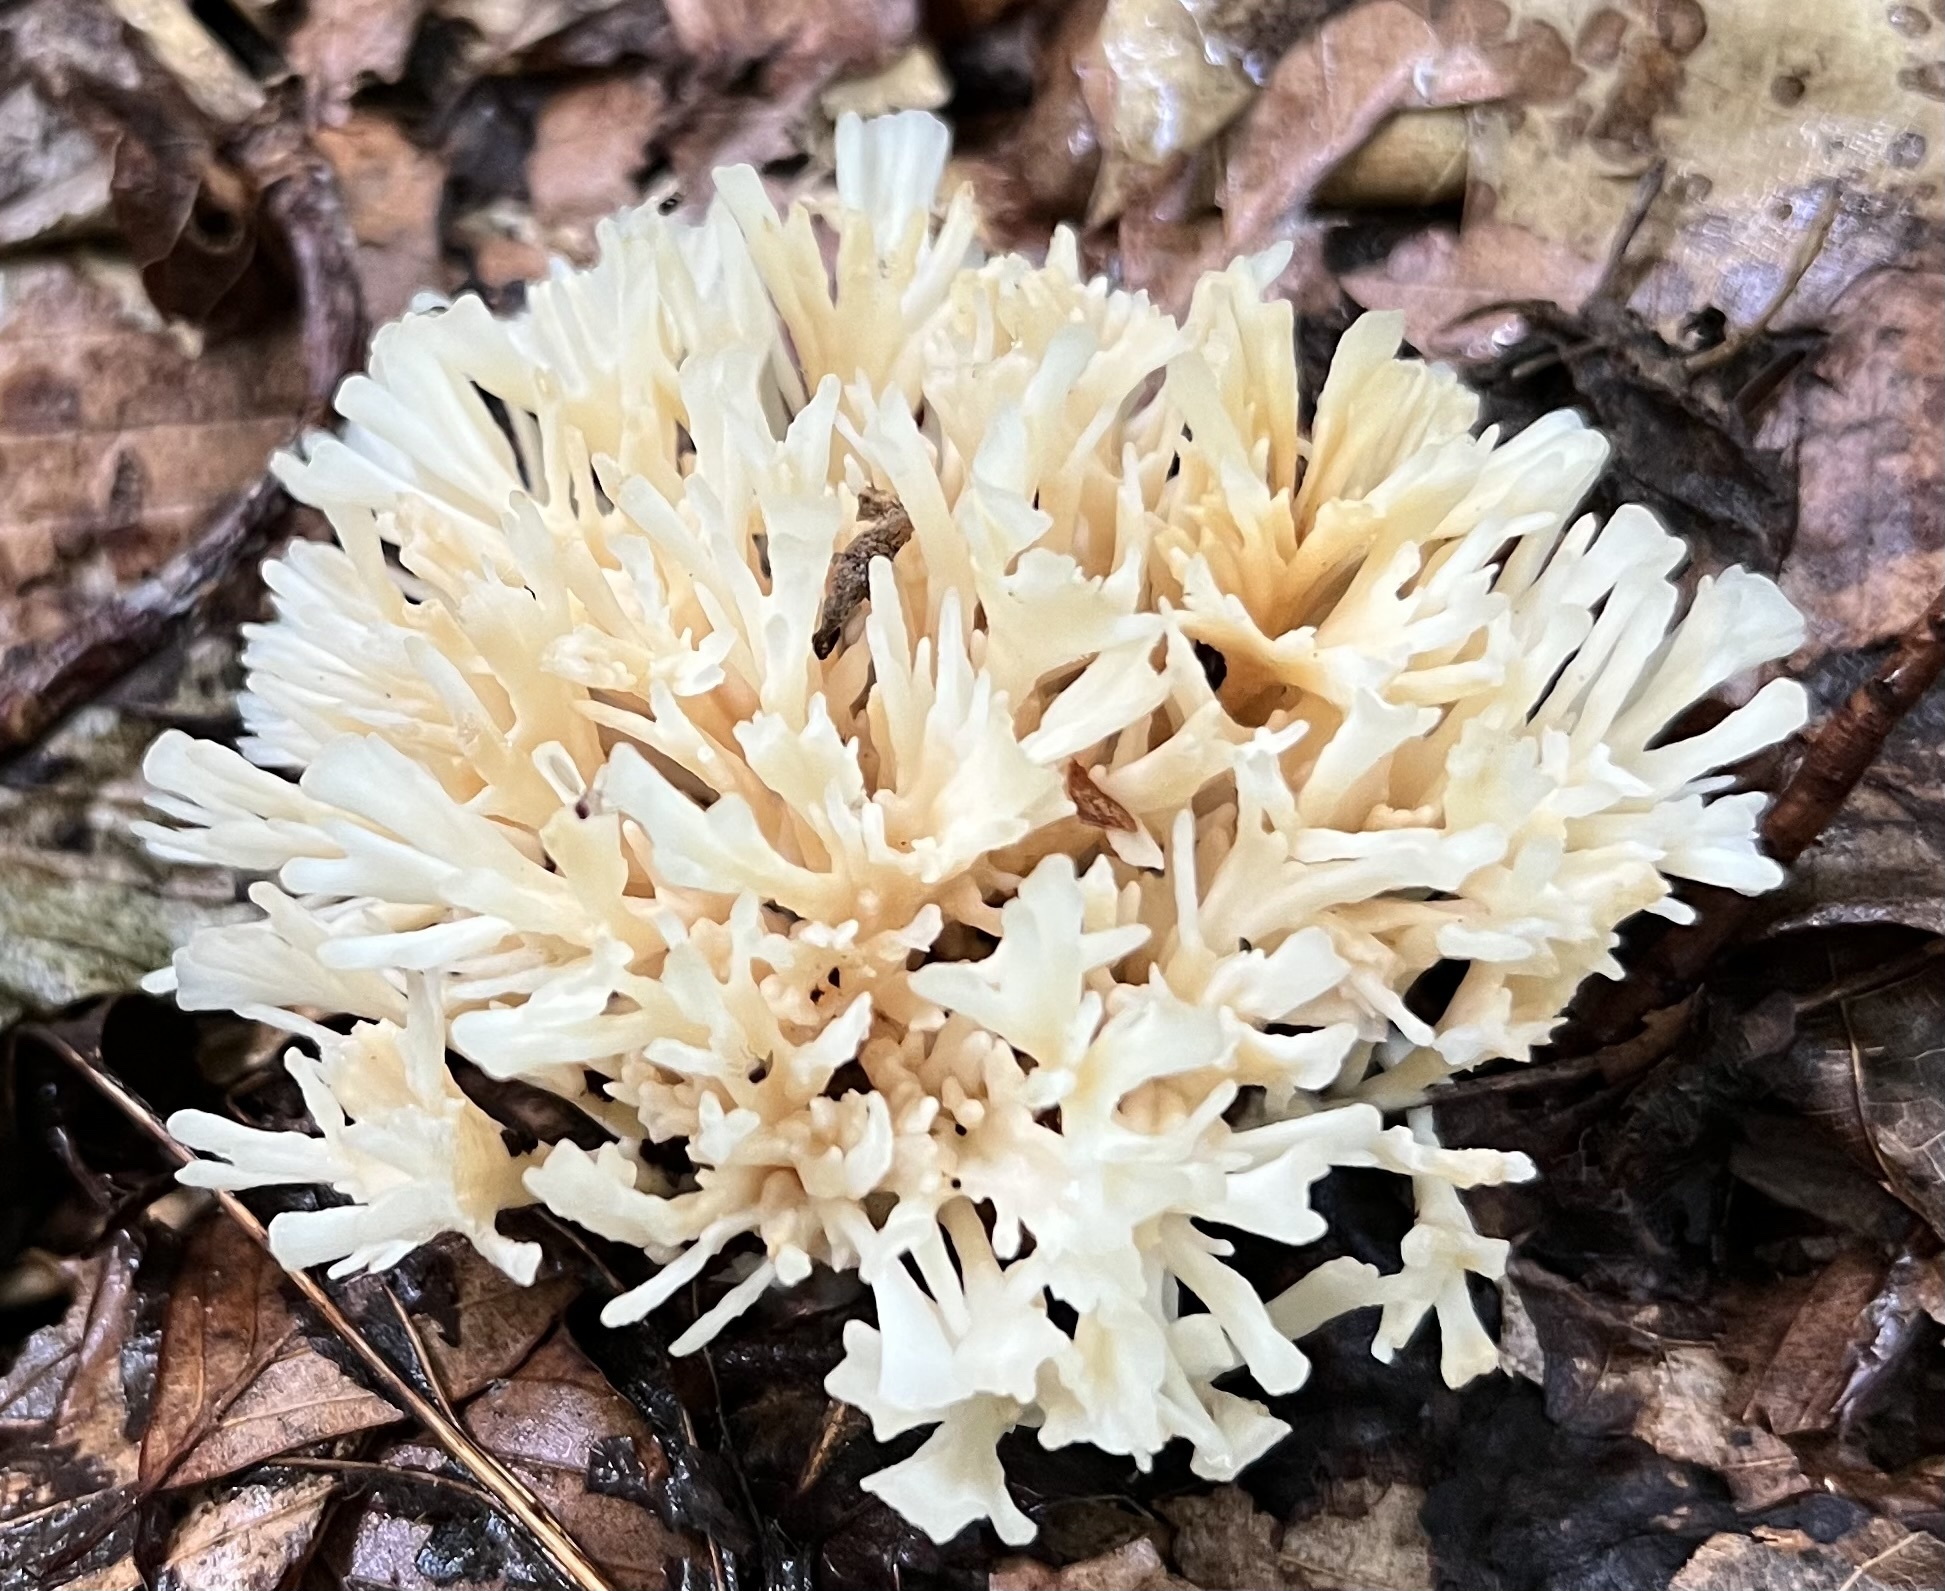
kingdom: Fungi
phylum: Basidiomycota
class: Agaricomycetes
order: Sebacinales
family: Sebacinaceae
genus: Sebacina
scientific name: Sebacina schweinitzii
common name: Jellied false coral fungus
